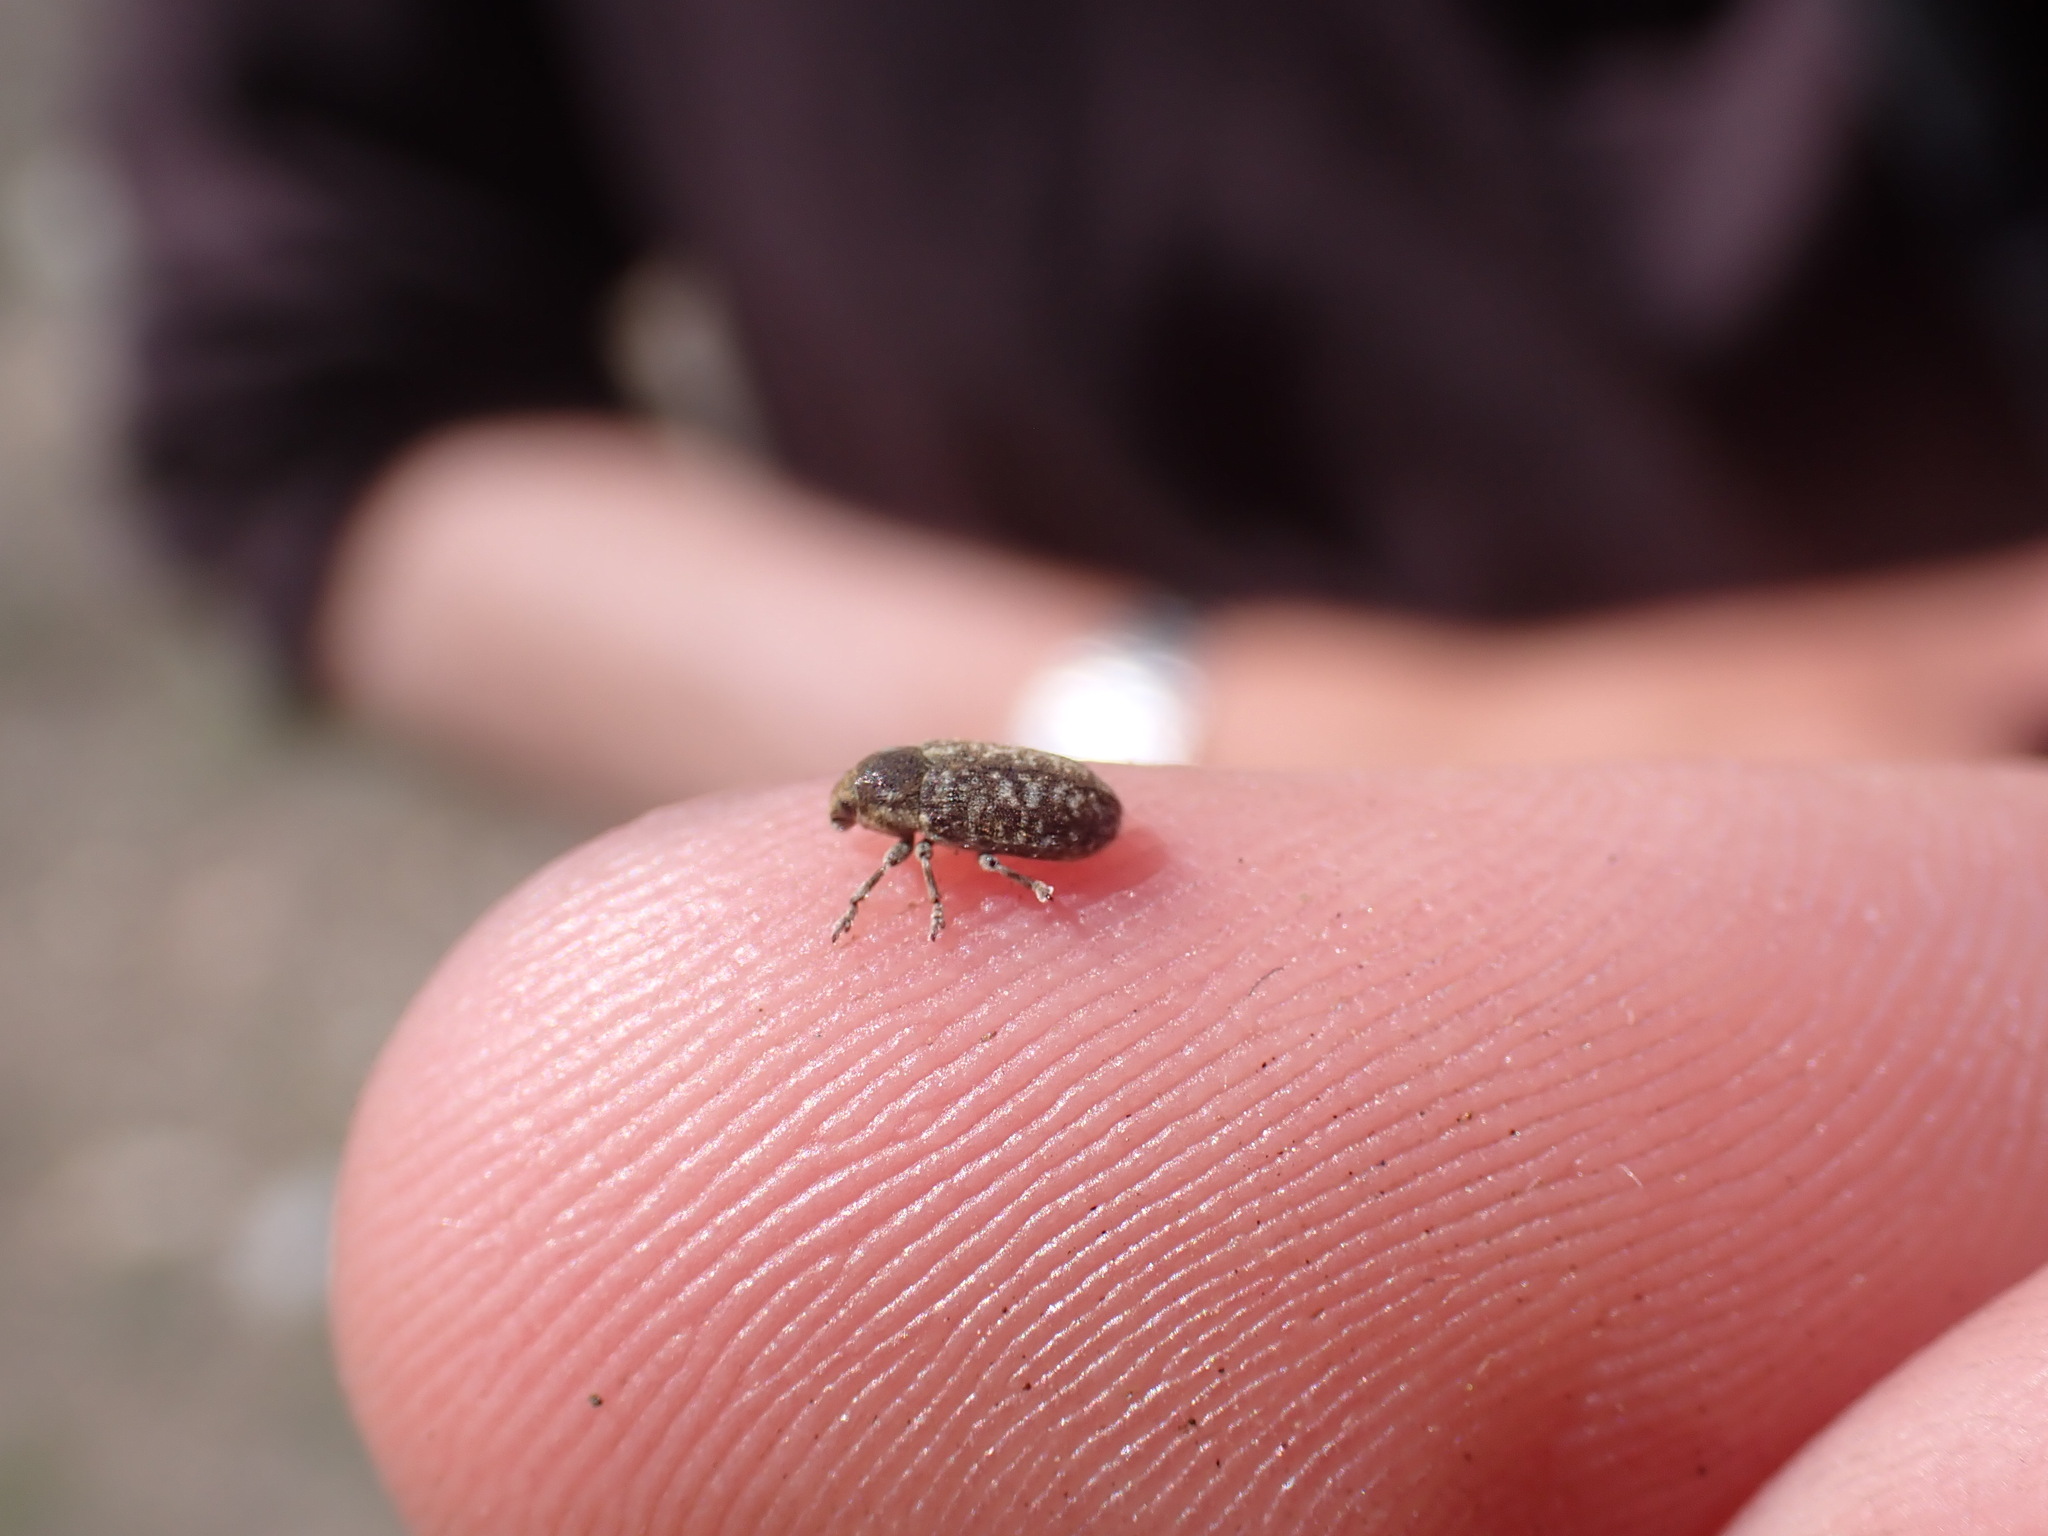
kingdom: Animalia
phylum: Arthropoda
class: Insecta
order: Coleoptera
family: Curculionidae
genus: Bangasternus
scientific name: Bangasternus fausti
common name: Broad-nosed knapweed seedhead weevil
